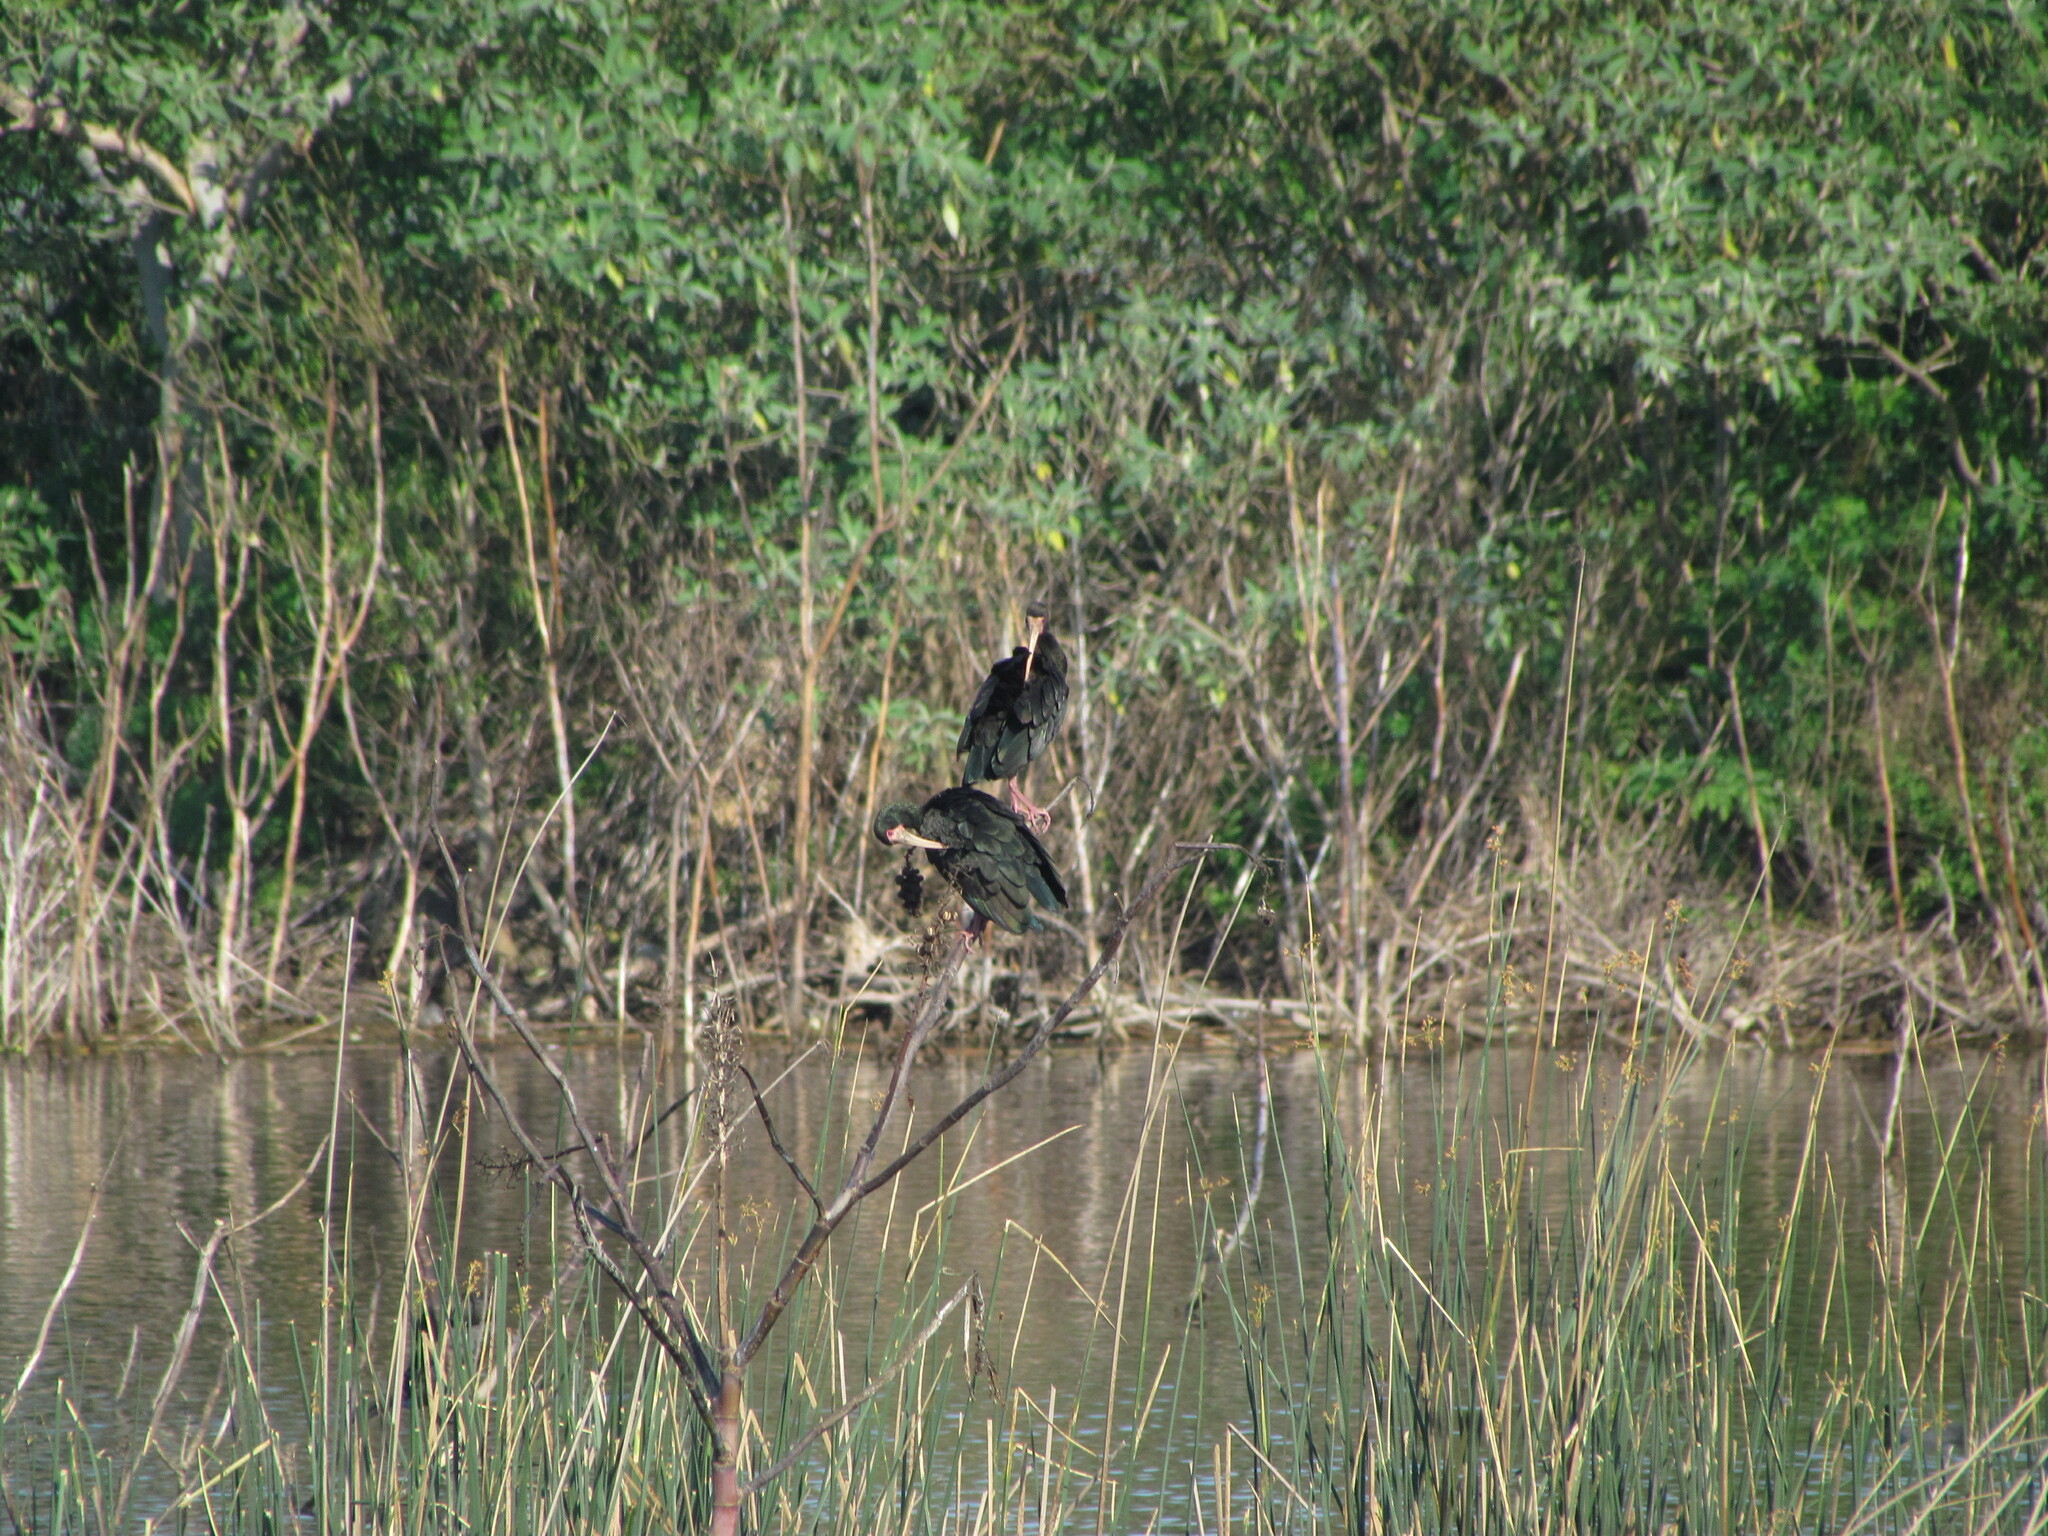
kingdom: Animalia
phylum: Chordata
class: Aves
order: Pelecaniformes
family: Threskiornithidae
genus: Phimosus
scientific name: Phimosus infuscatus
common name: Bare-faced ibis
